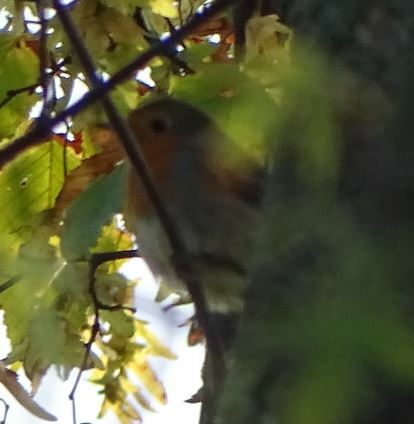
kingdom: Animalia
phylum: Chordata
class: Aves
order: Passeriformes
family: Muscicapidae
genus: Erithacus
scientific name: Erithacus rubecula
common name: European robin
